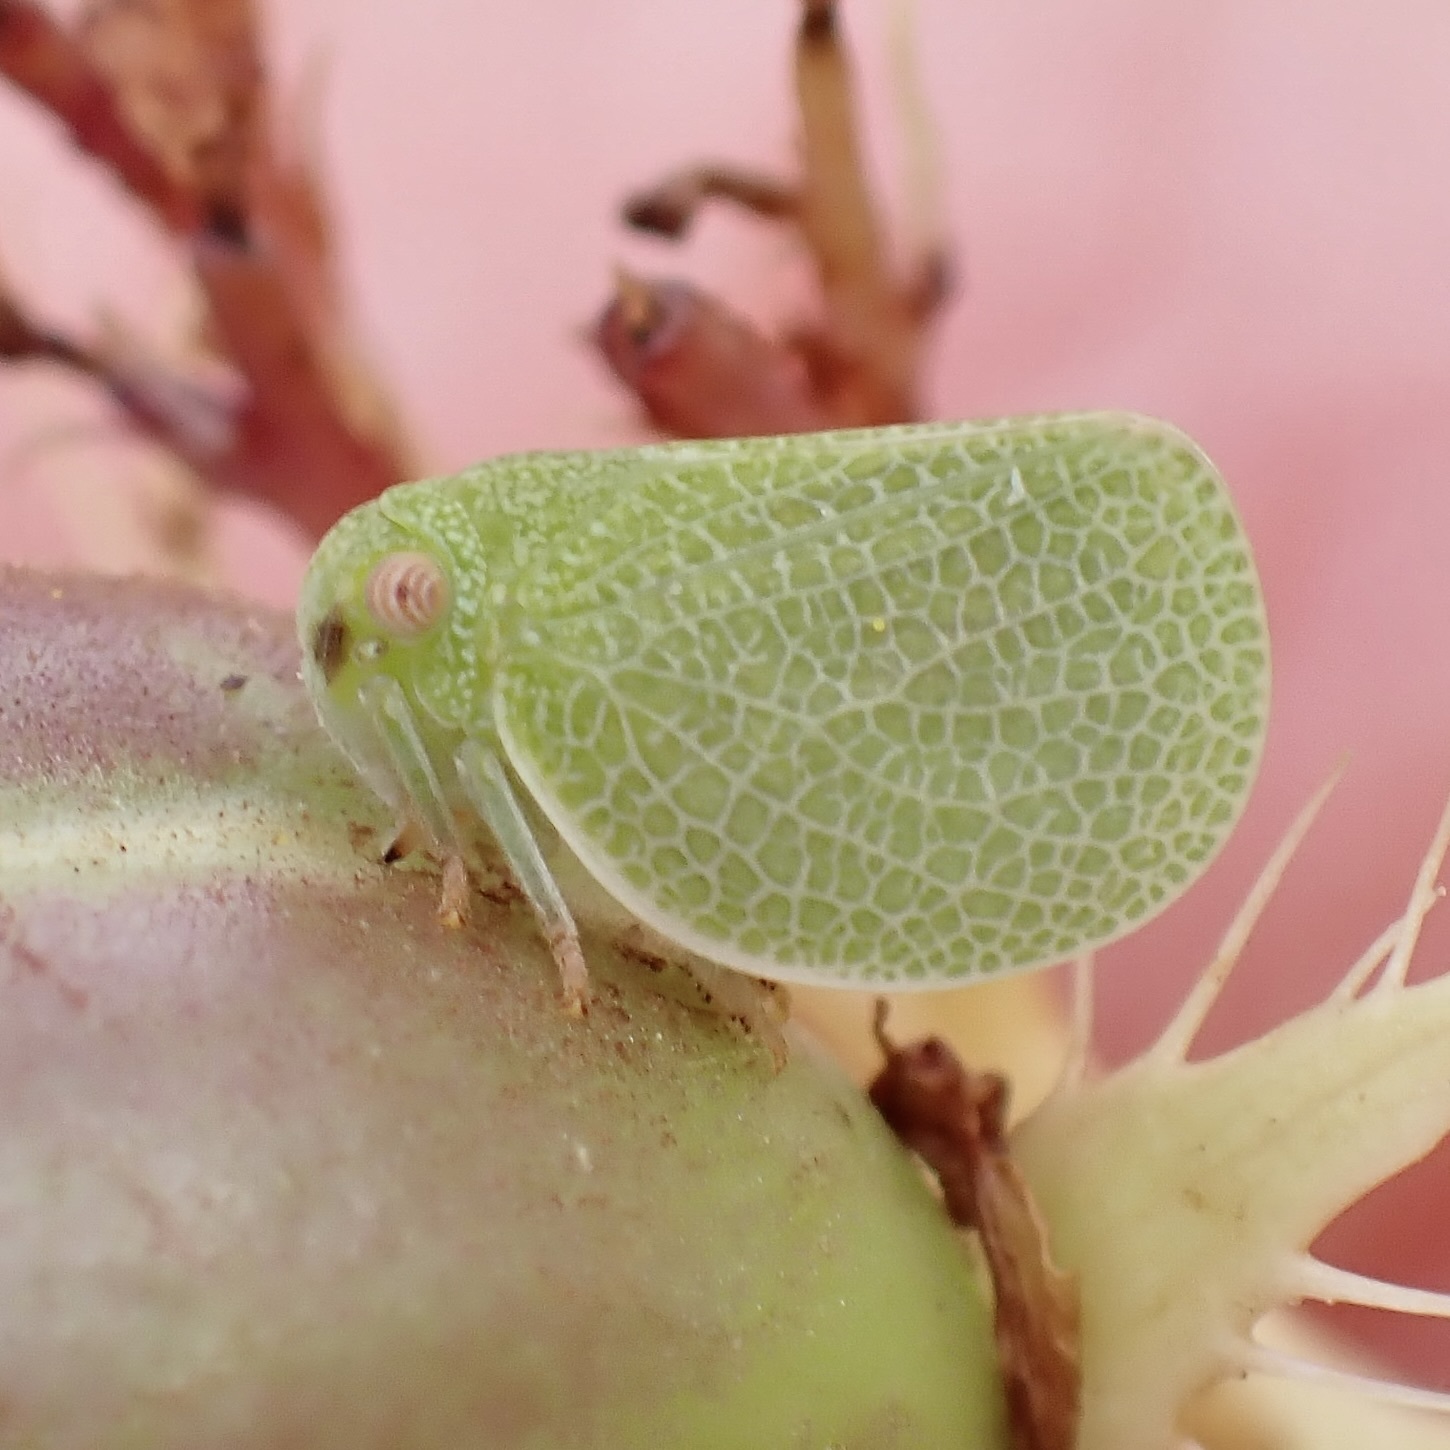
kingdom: Animalia
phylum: Arthropoda
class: Insecta
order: Hemiptera
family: Acanaloniidae
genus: Acanalonia
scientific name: Acanalonia immaculata
